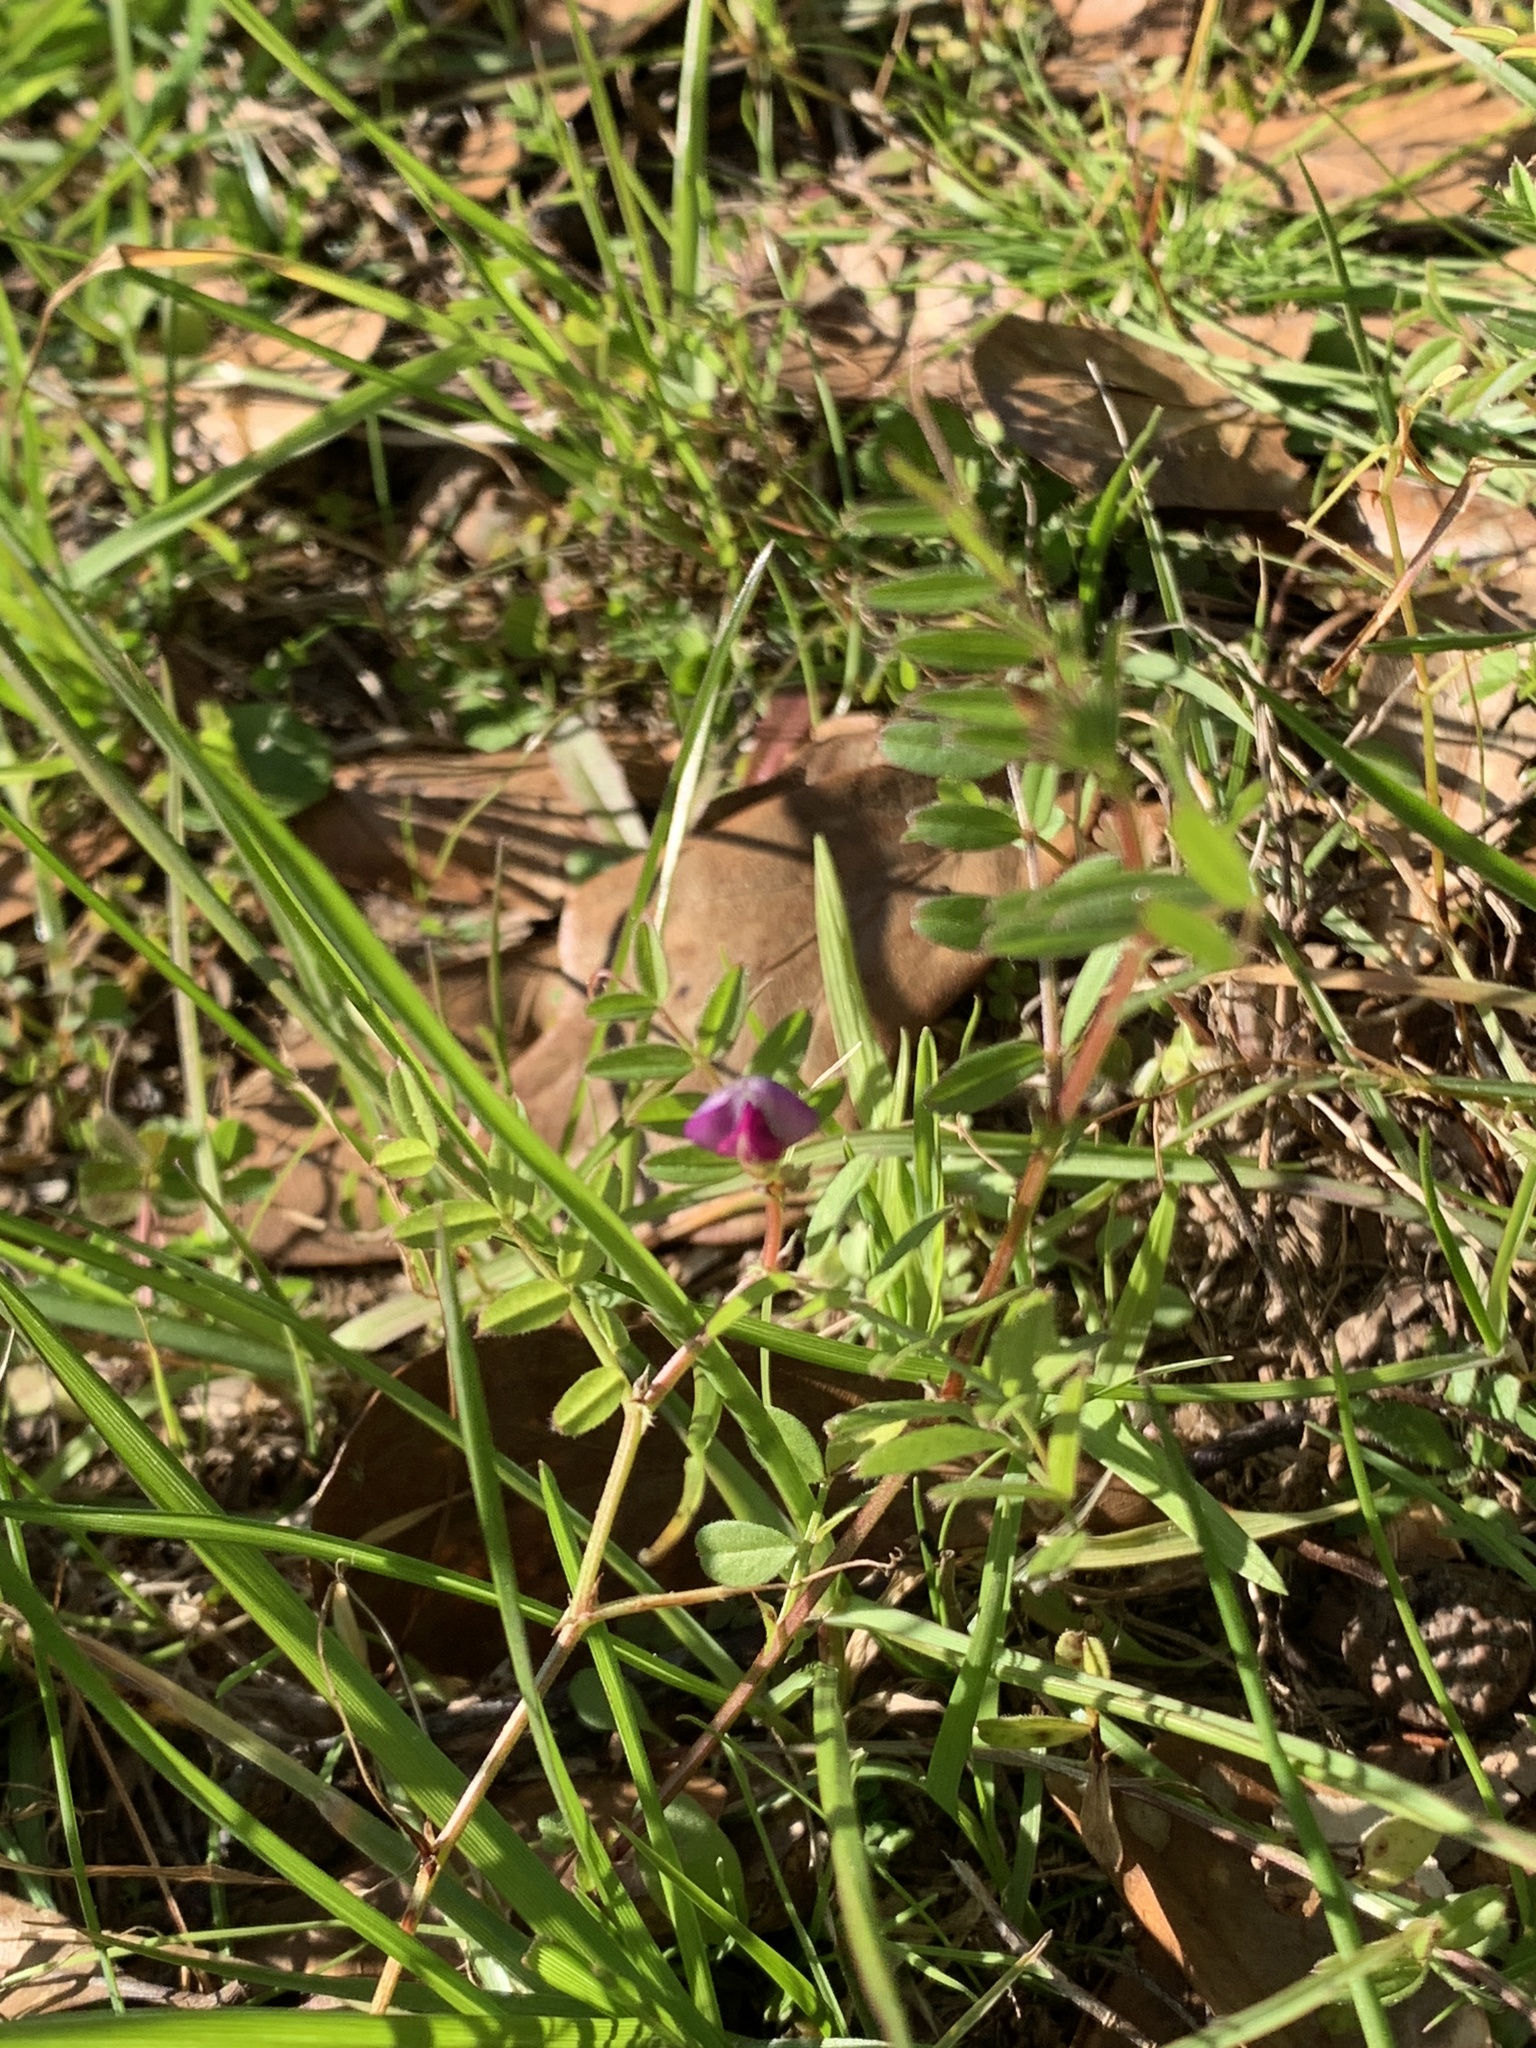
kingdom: Plantae
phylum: Tracheophyta
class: Magnoliopsida
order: Fabales
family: Fabaceae
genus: Vicia
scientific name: Vicia sativa
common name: Garden vetch
